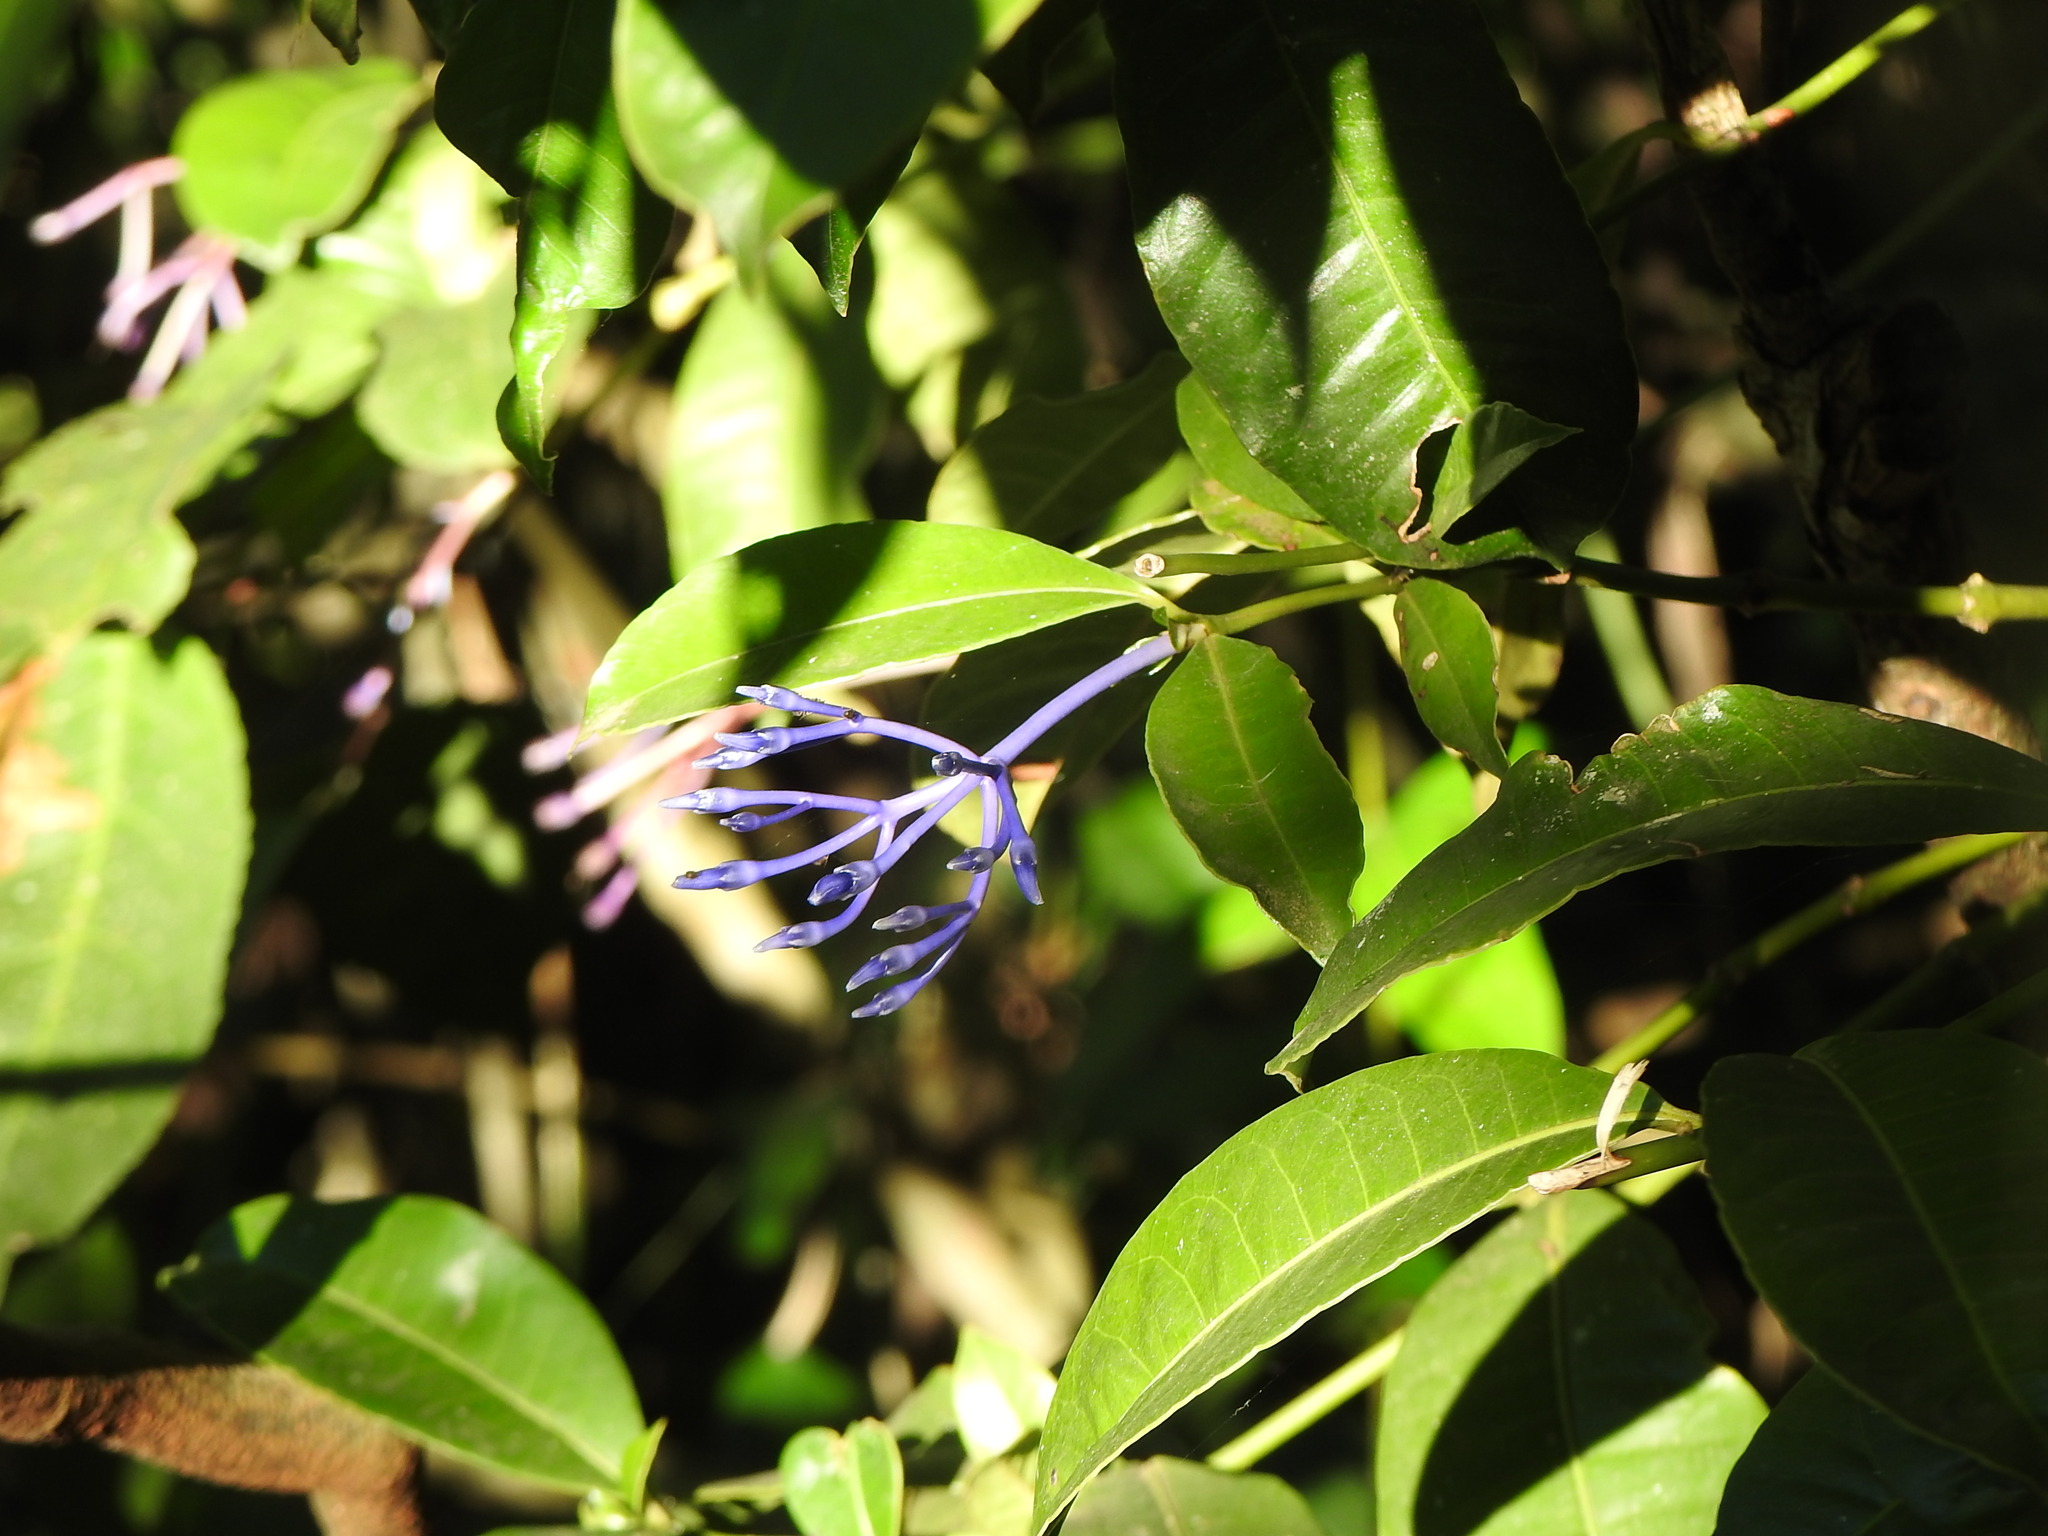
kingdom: Plantae
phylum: Tracheophyta
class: Magnoliopsida
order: Gentianales
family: Rubiaceae
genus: Faramea
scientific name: Faramea hyacinthina
